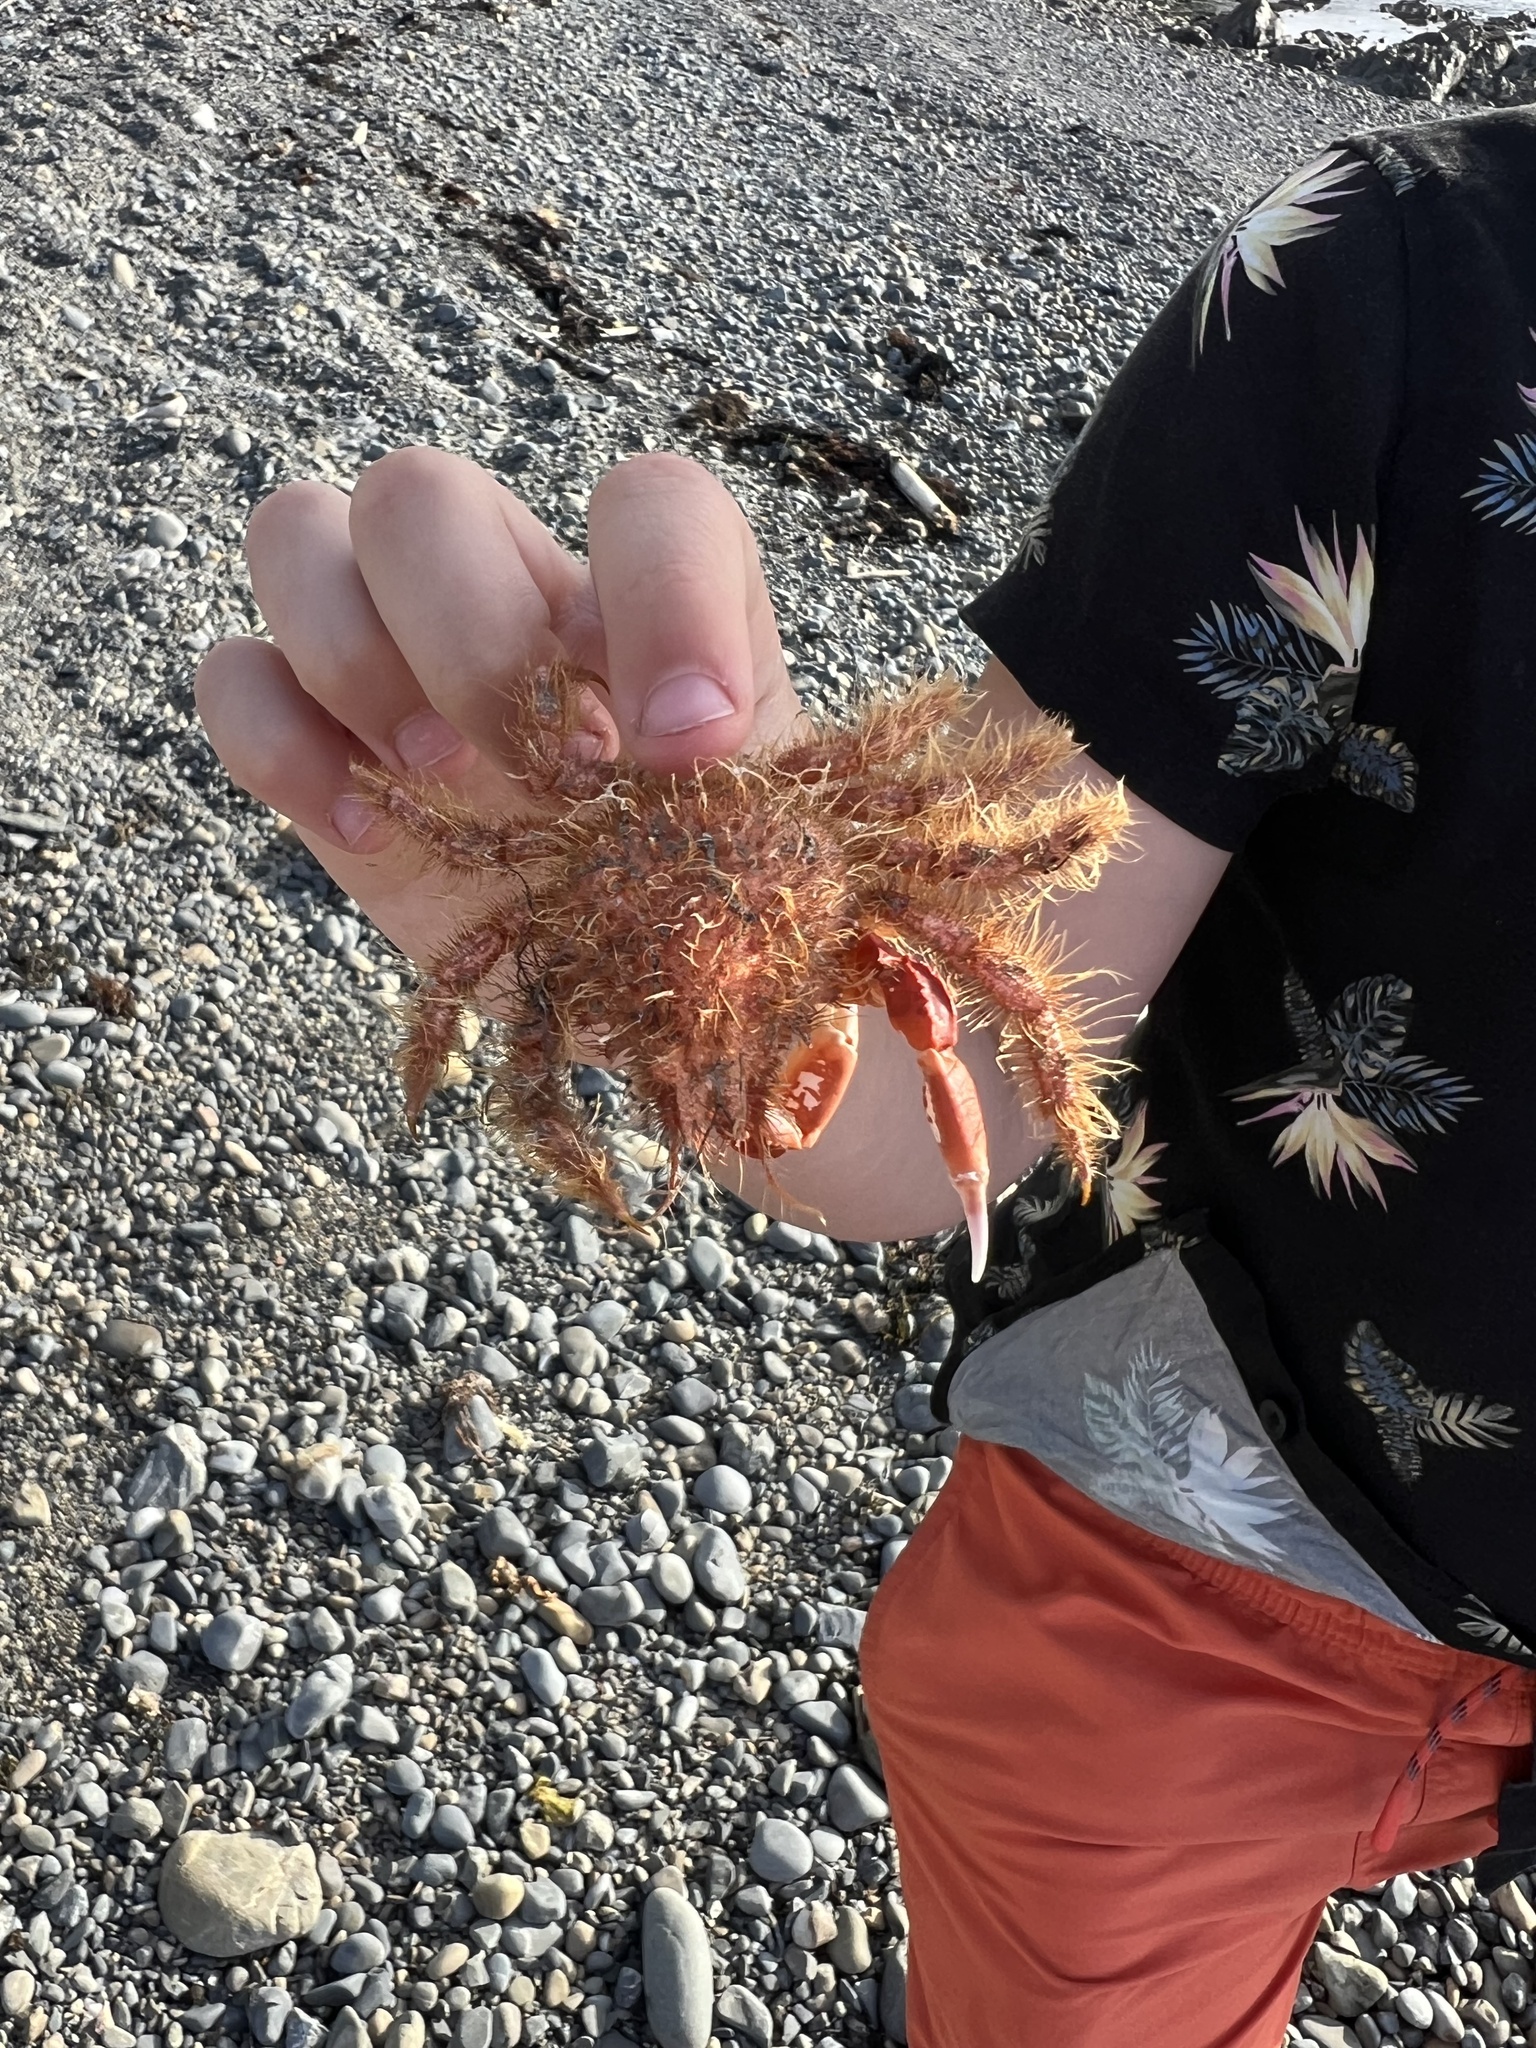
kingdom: Animalia
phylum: Arthropoda
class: Malacostraca
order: Decapoda
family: Majidae
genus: Notomithrax
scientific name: Notomithrax ursus
